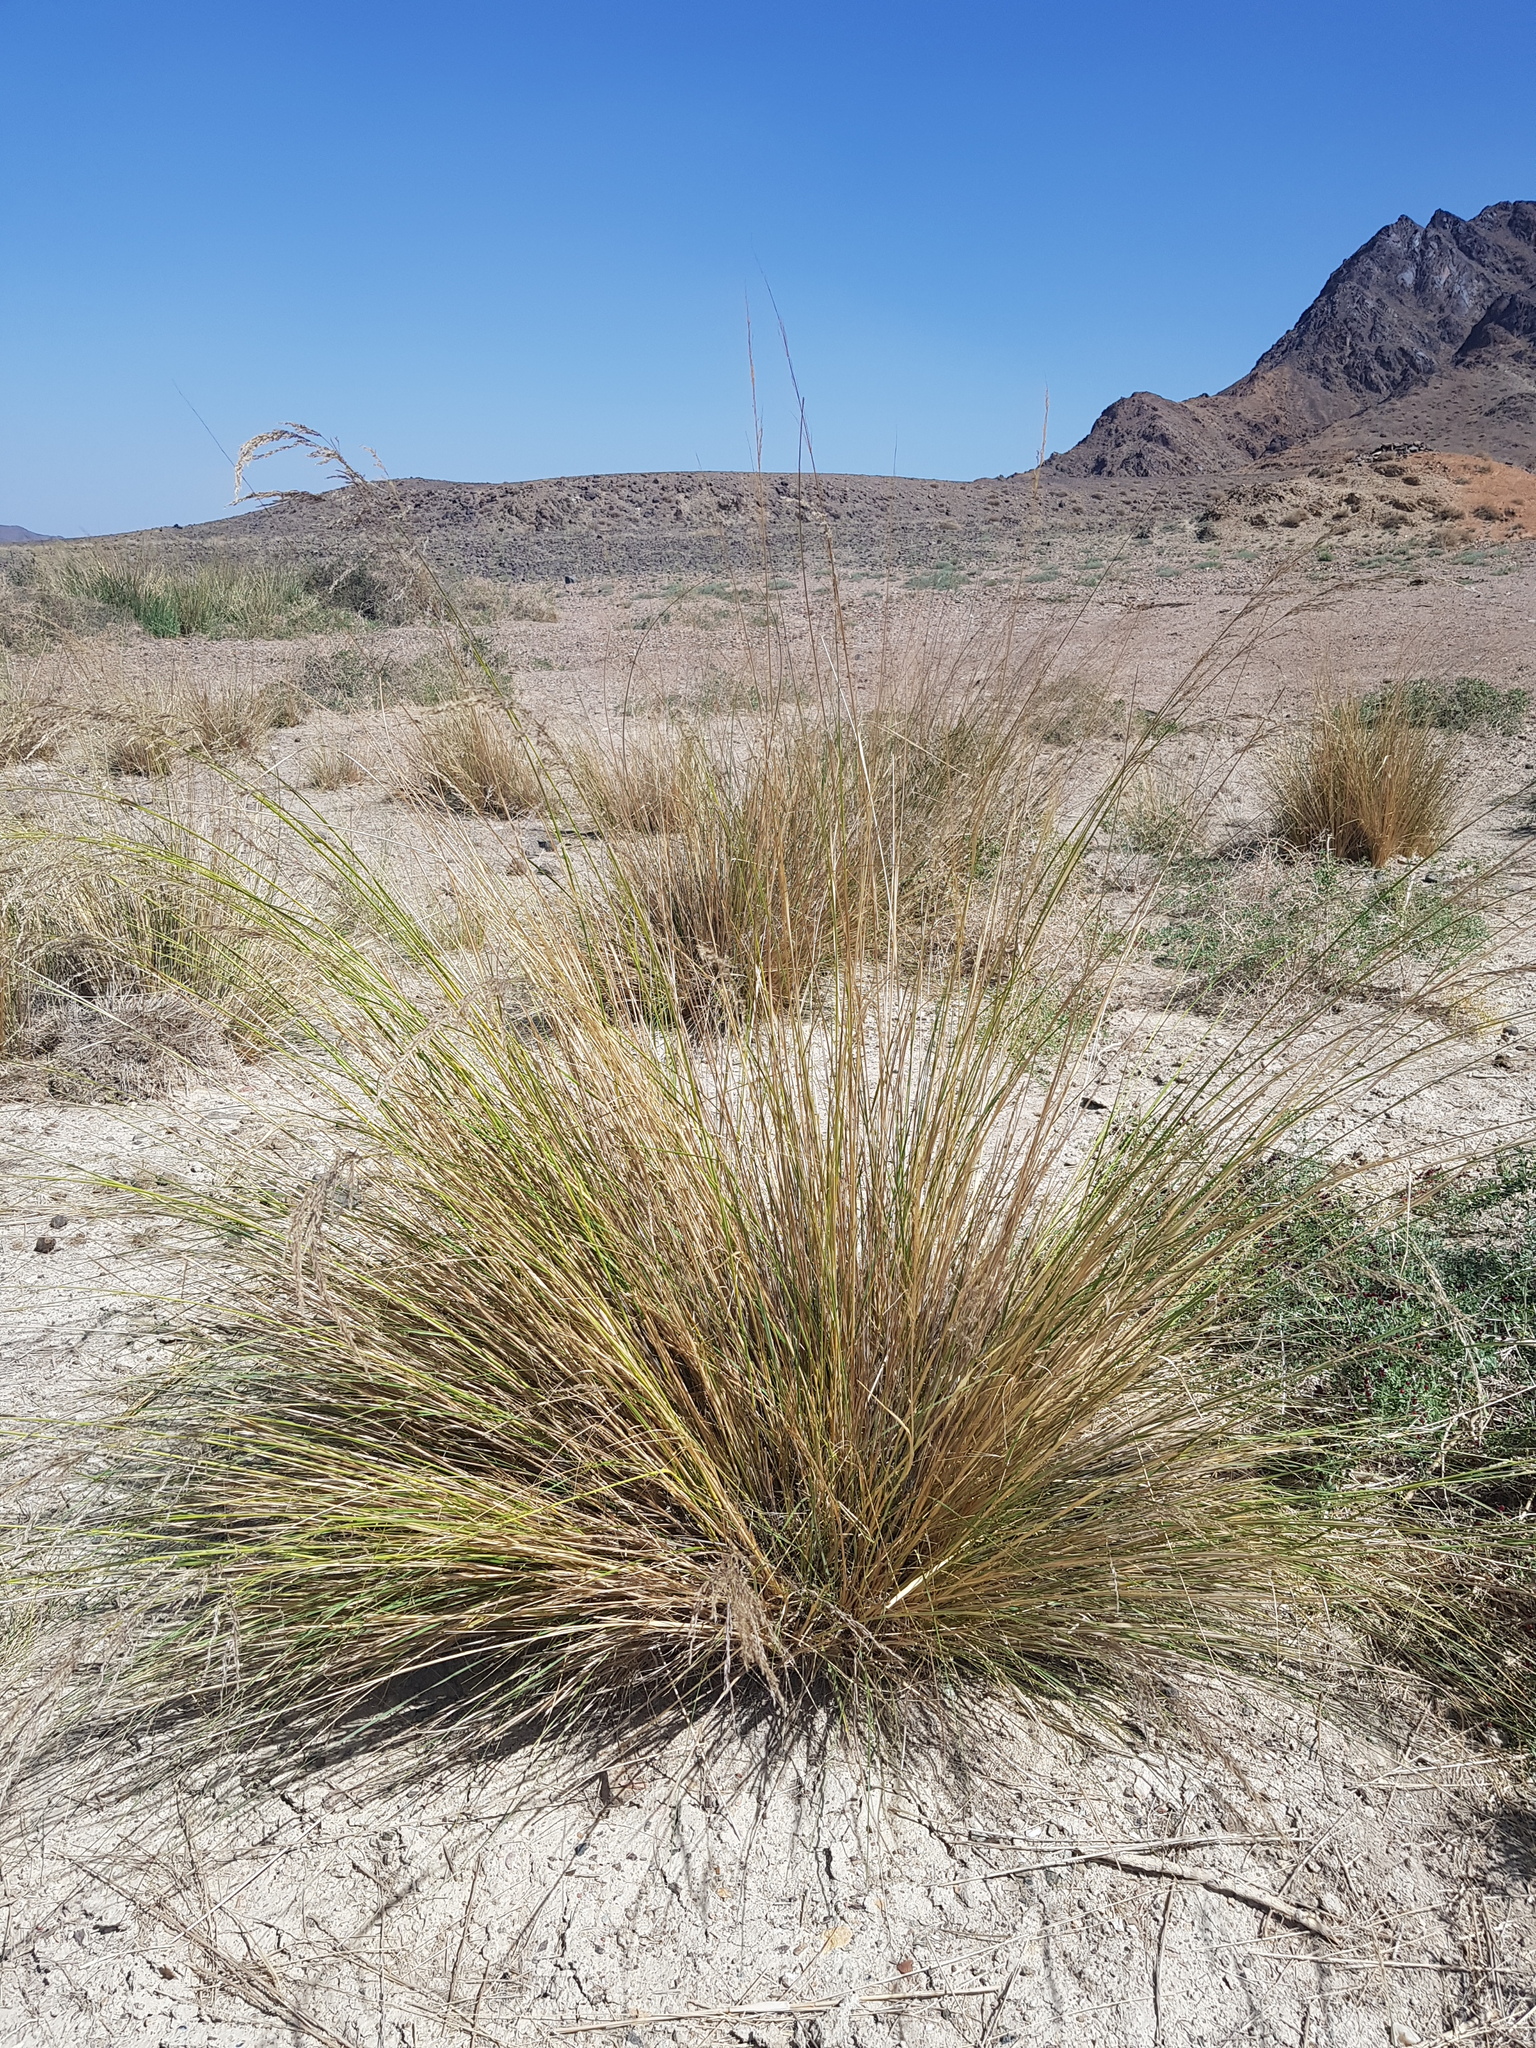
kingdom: Plantae
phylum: Tracheophyta
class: Liliopsida
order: Poales
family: Poaceae
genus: Neotrinia
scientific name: Neotrinia splendens
